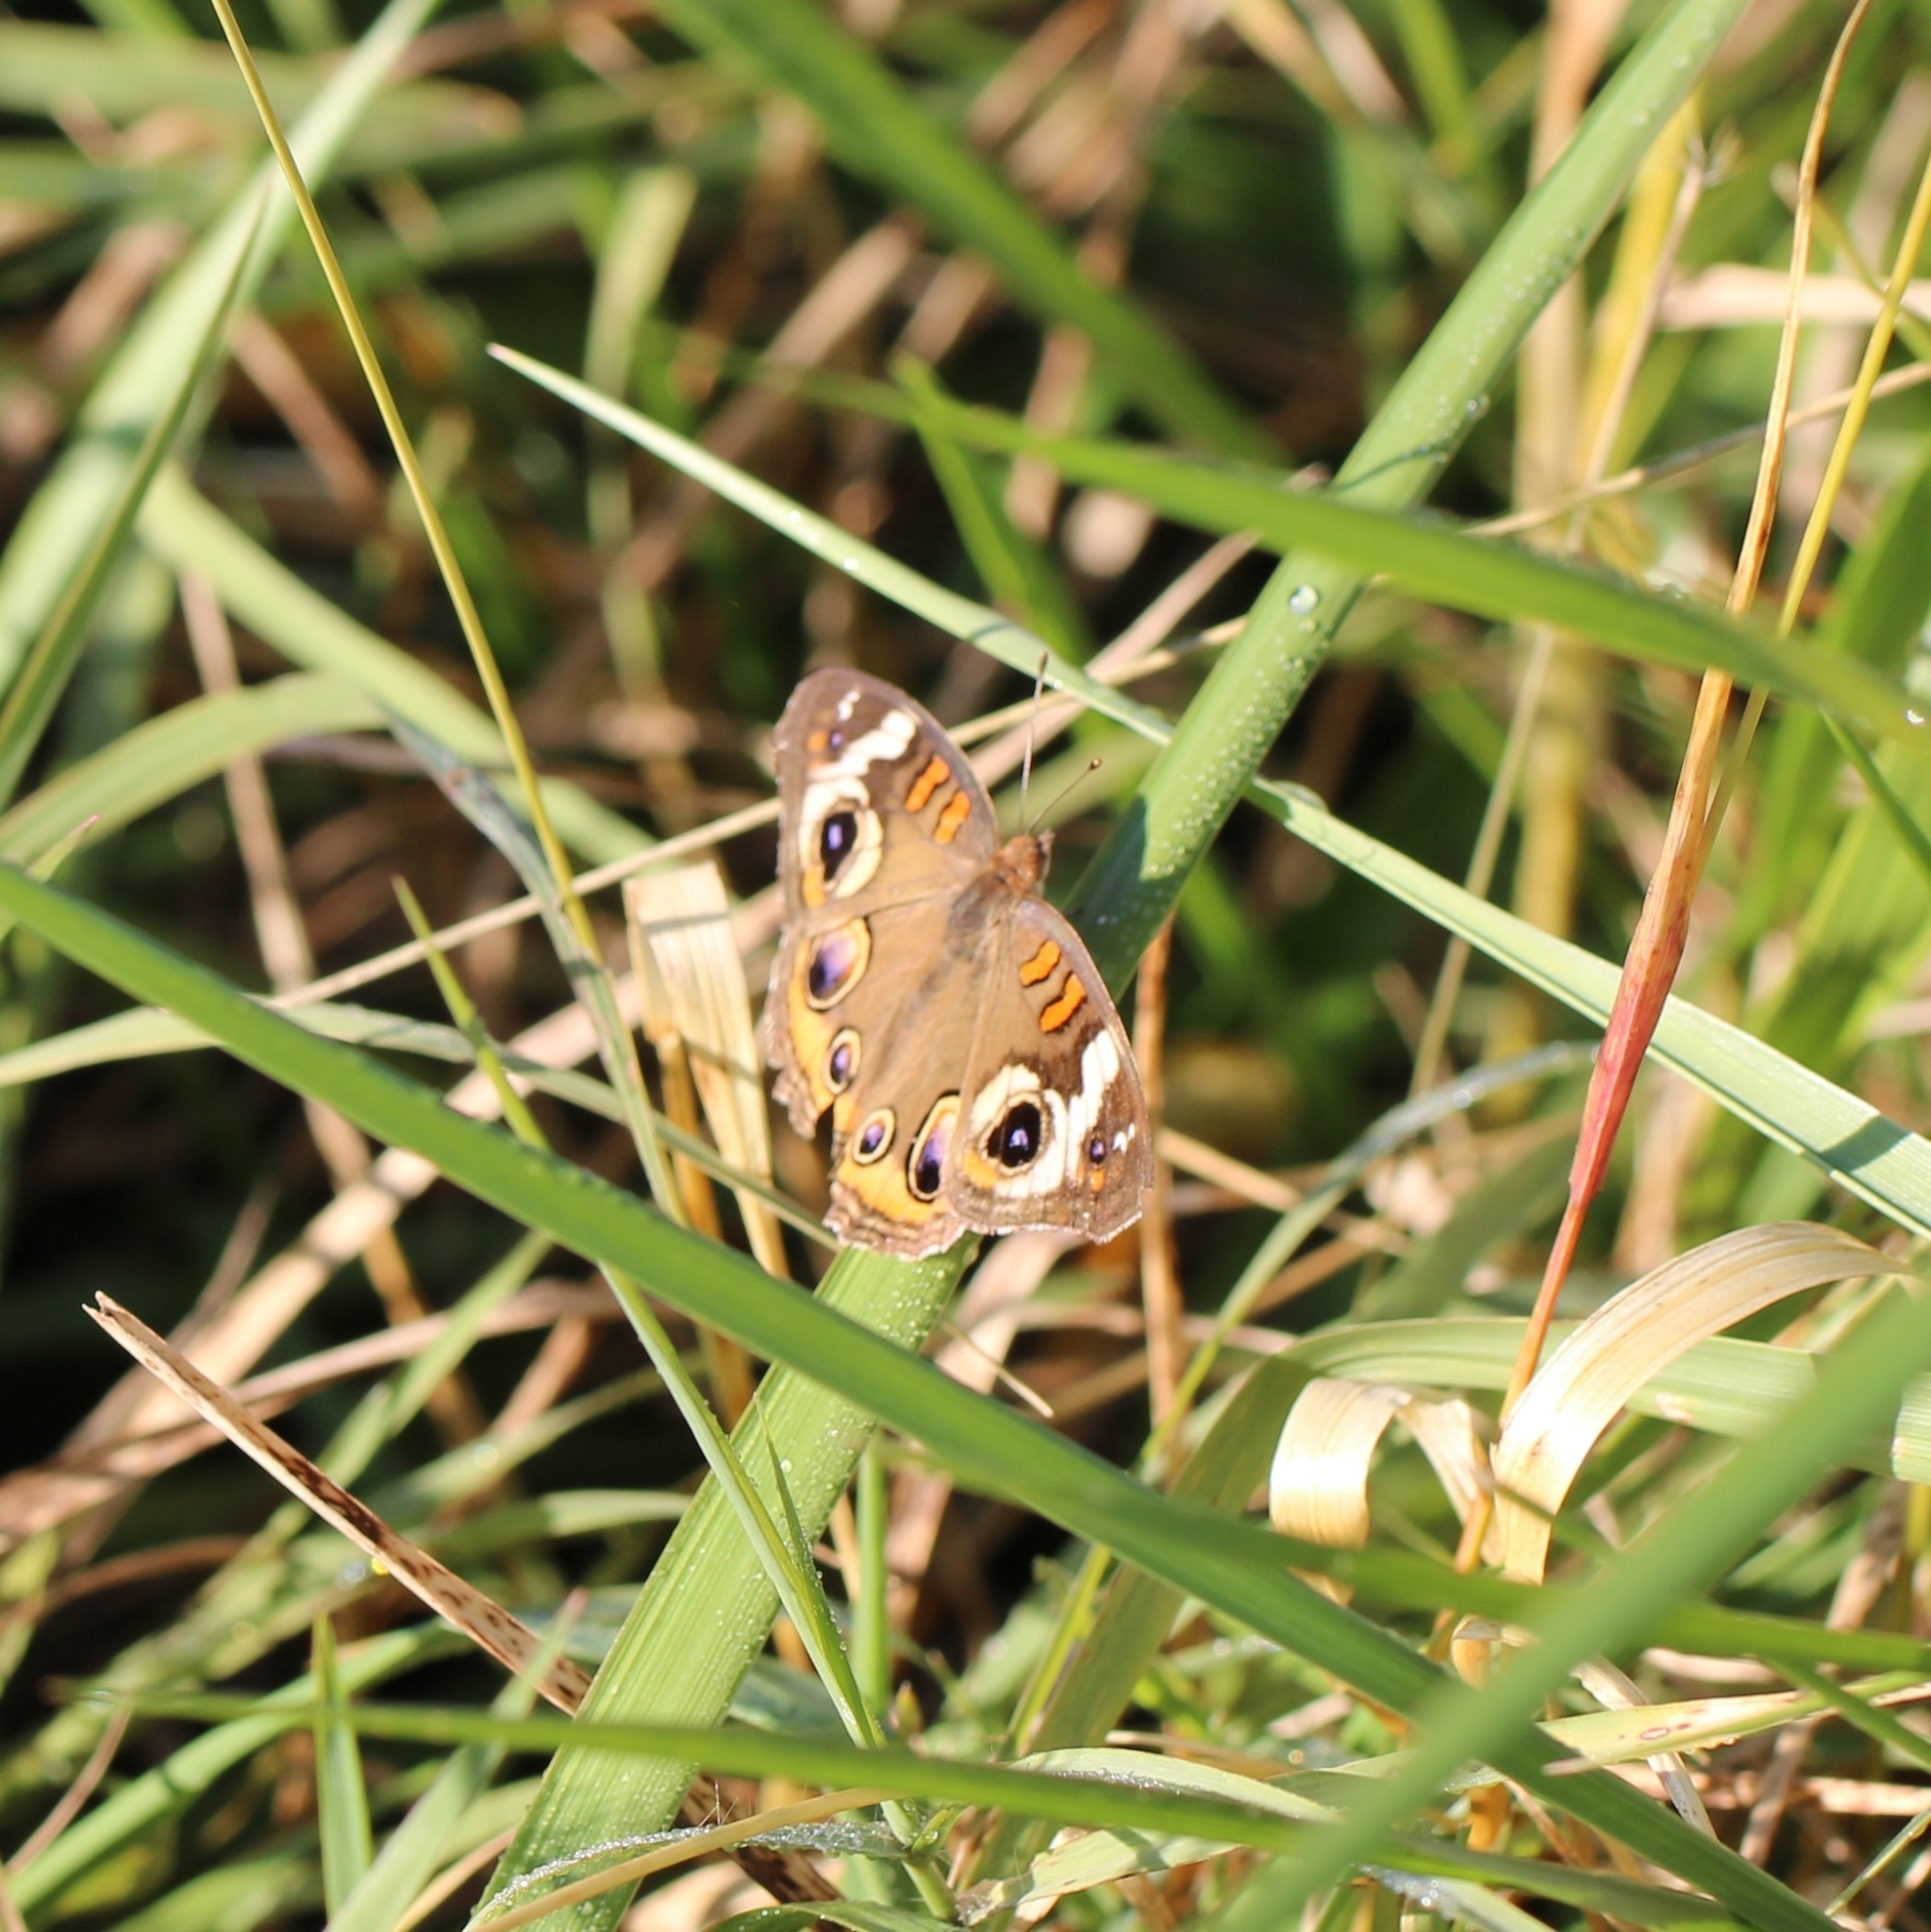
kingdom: Animalia
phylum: Arthropoda
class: Insecta
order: Lepidoptera
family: Nymphalidae
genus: Junonia
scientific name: Junonia coenia
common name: Common buckeye
